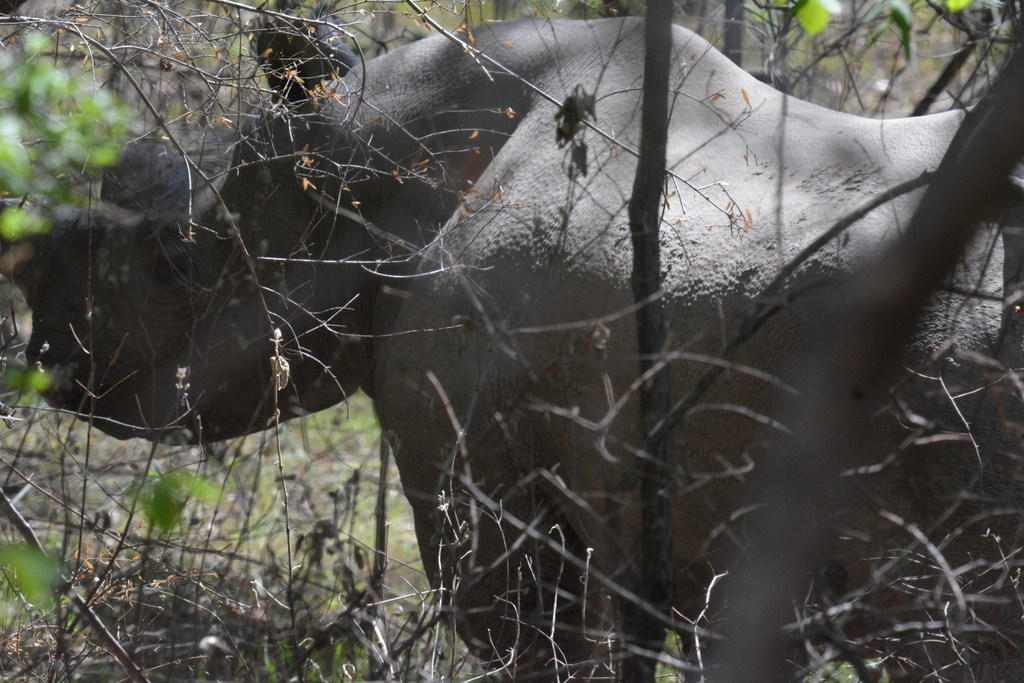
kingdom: Animalia
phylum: Chordata
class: Mammalia
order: Perissodactyla
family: Rhinocerotidae
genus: Diceros
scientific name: Diceros bicornis
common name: Black rhinoceros
